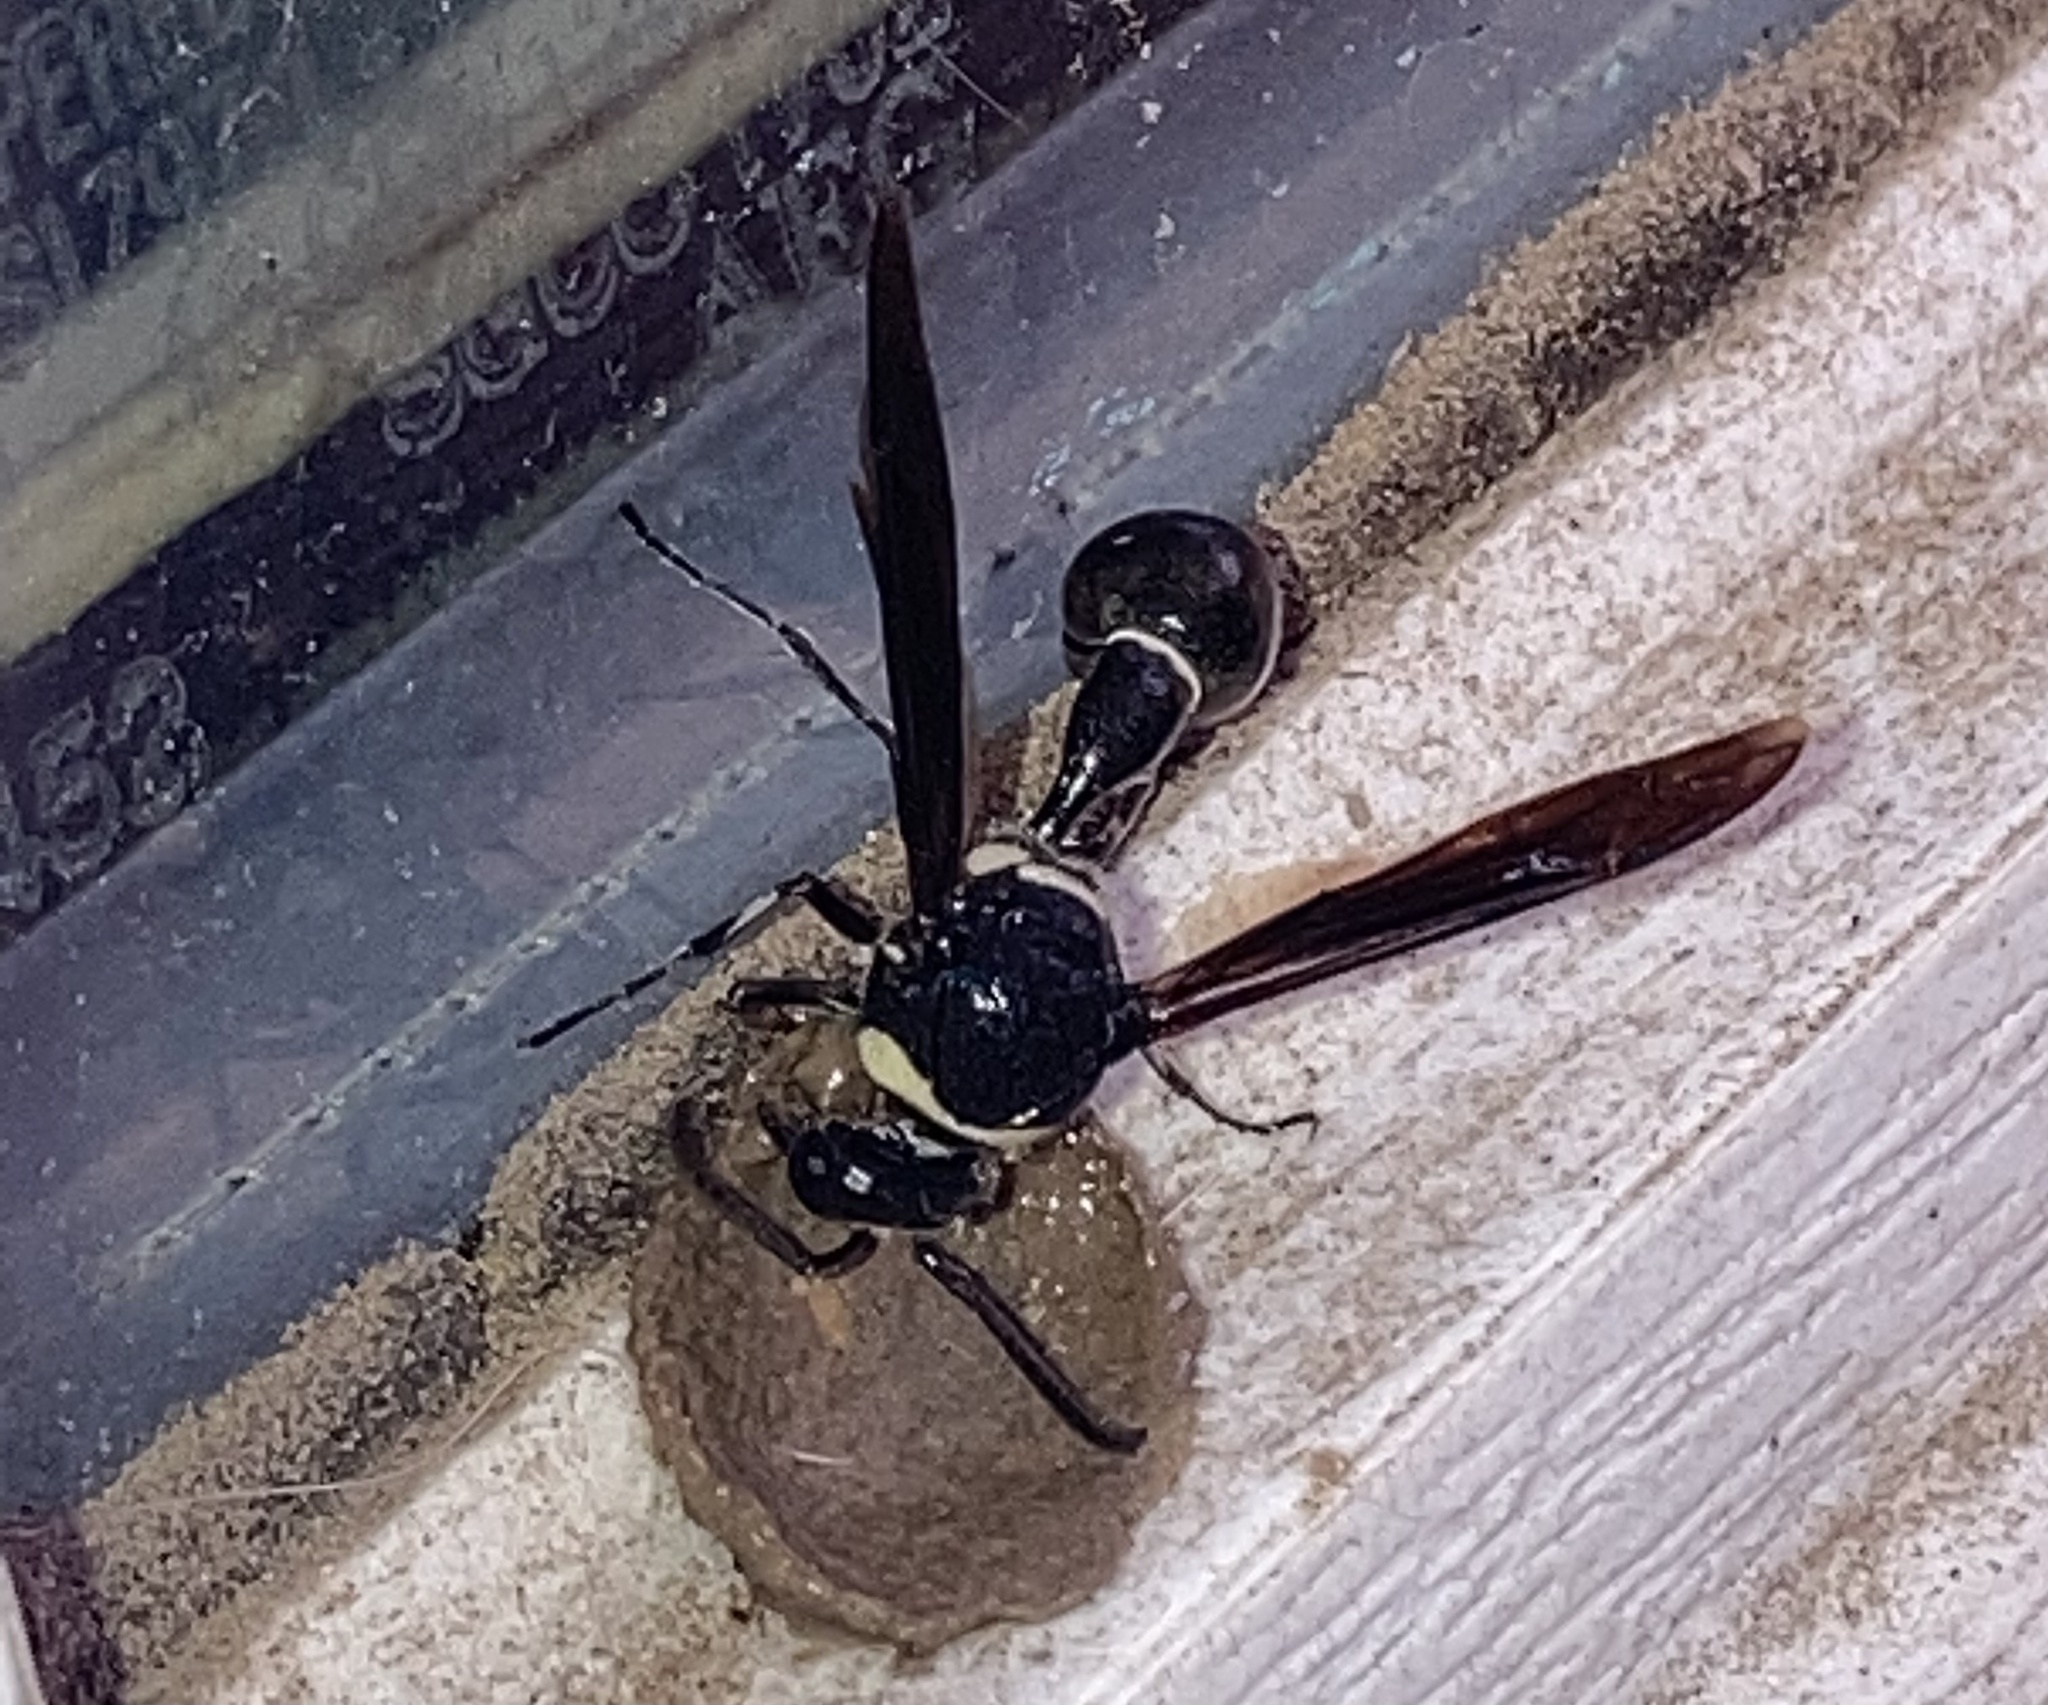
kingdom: Animalia
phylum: Arthropoda
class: Insecta
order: Hymenoptera
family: Vespidae
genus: Eumenes
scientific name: Eumenes fraternus
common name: Fraternal potter wasp
